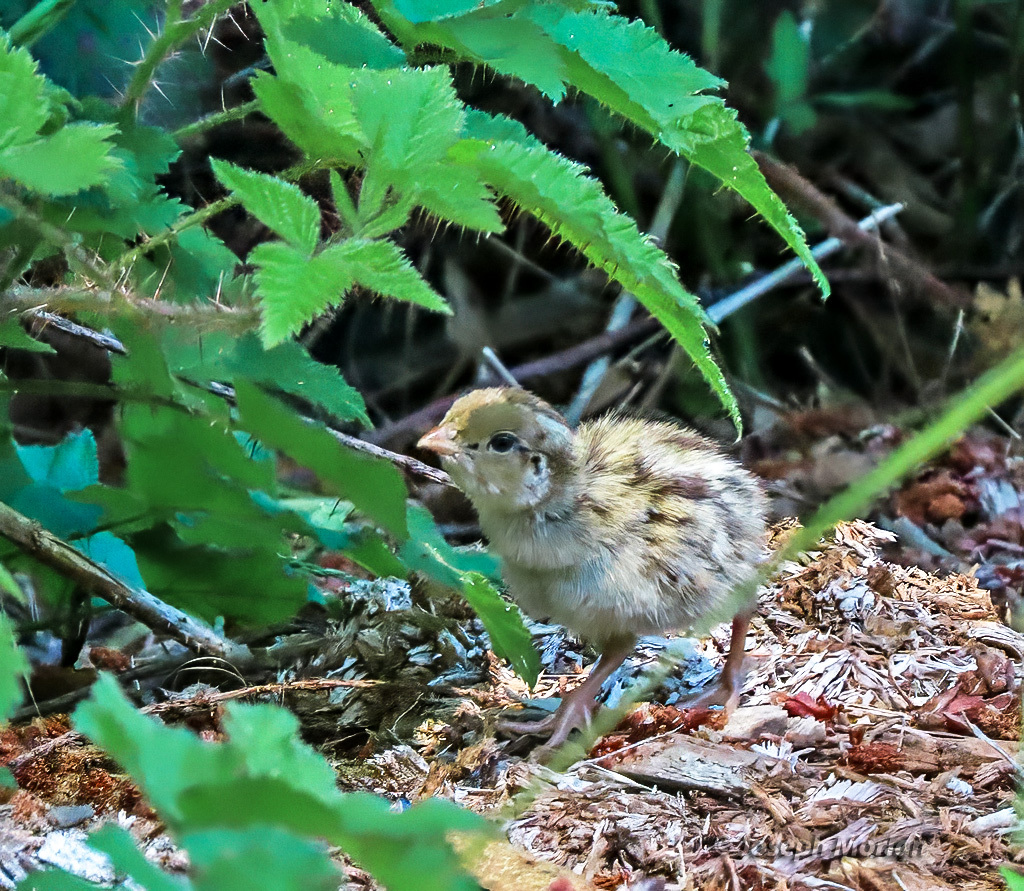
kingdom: Animalia
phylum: Chordata
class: Aves
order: Galliformes
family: Odontophoridae
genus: Callipepla
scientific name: Callipepla californica
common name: California quail
